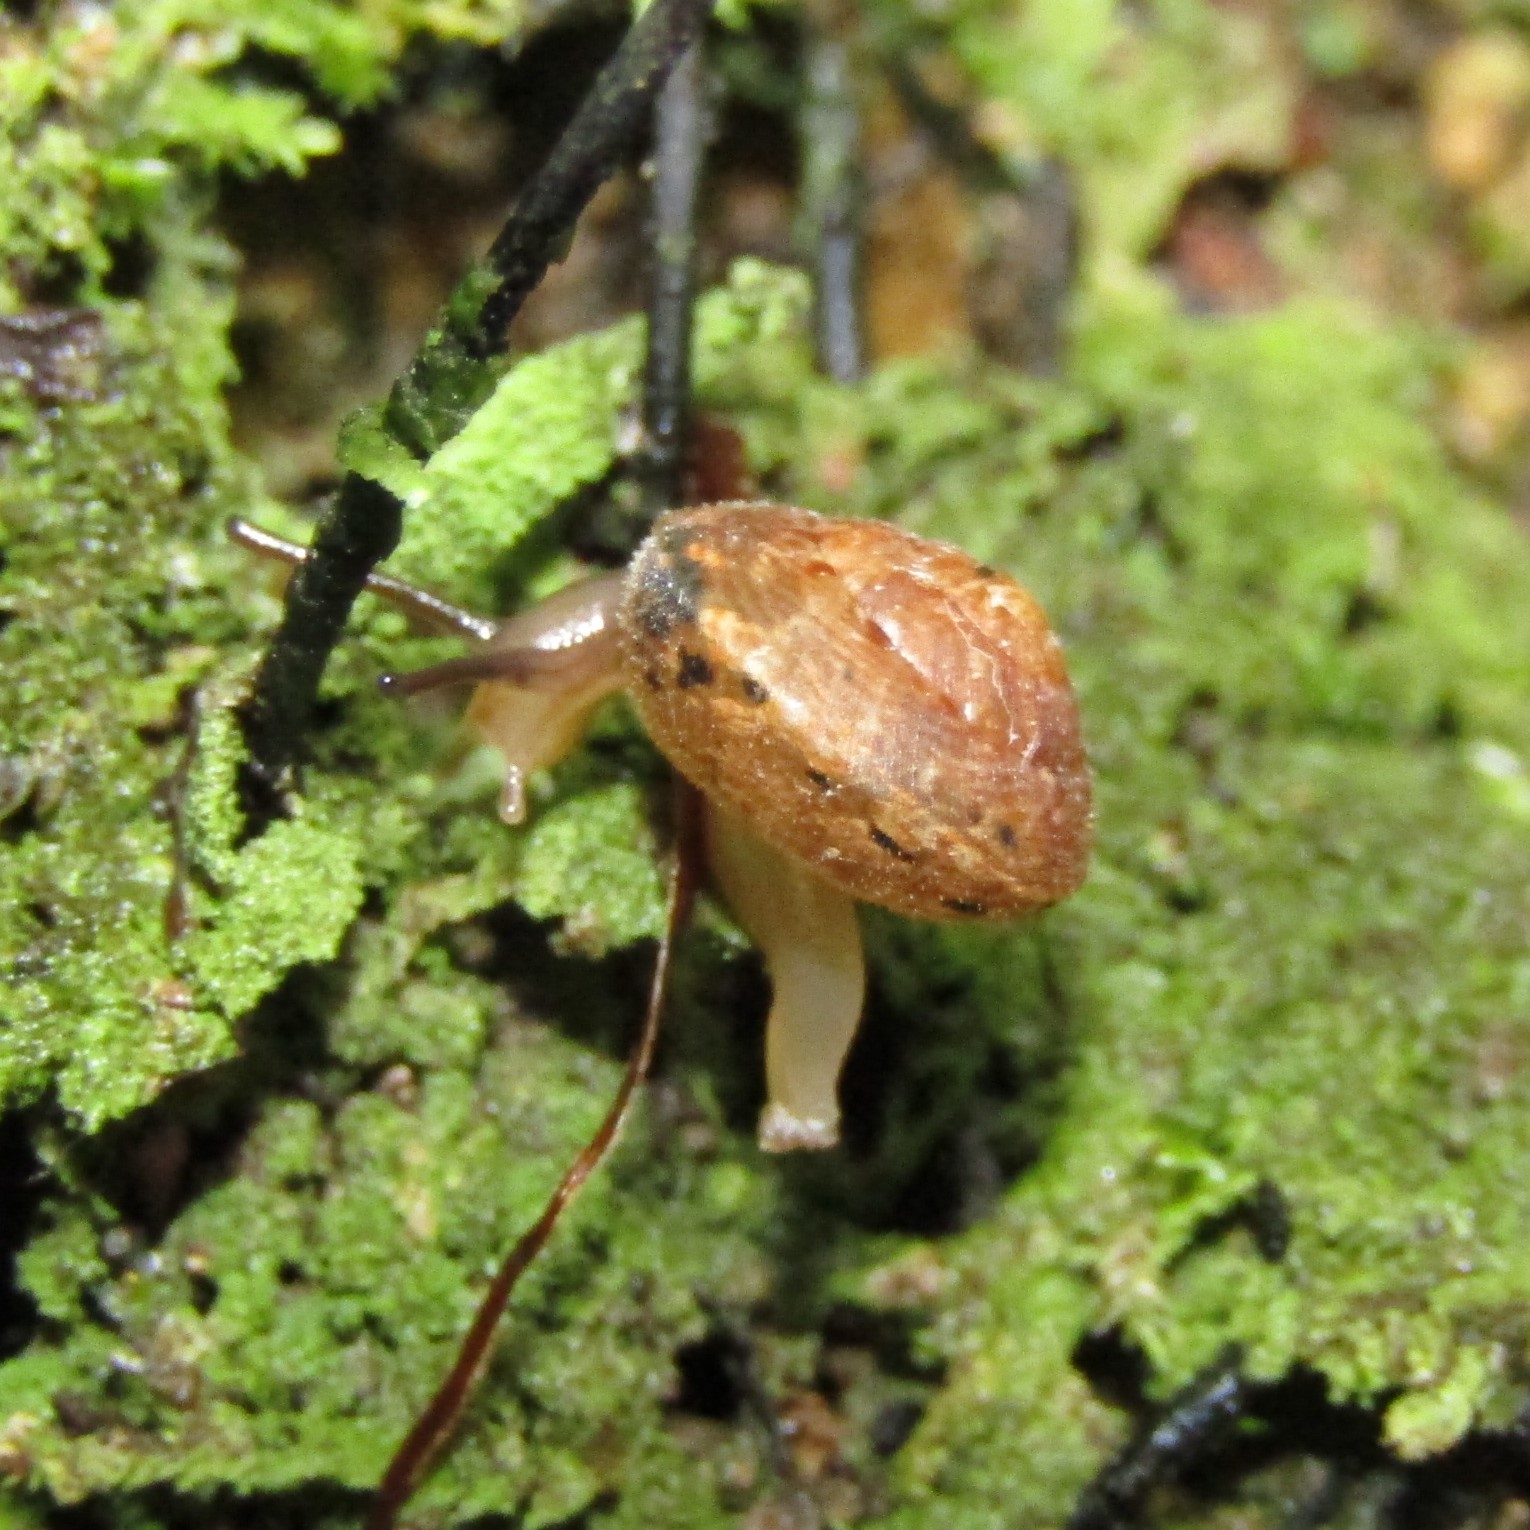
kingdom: Animalia
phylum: Mollusca
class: Gastropoda
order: Stylommatophora
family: Charopidae
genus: Thalassohelix
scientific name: Thalassohelix zelandiae
